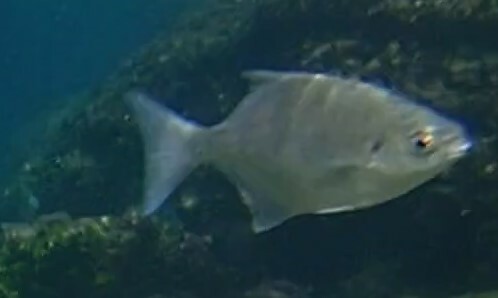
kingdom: Animalia
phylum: Chordata
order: Perciformes
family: Kyphosidae
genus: Neoscorpis
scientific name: Neoscorpis lithophilus
